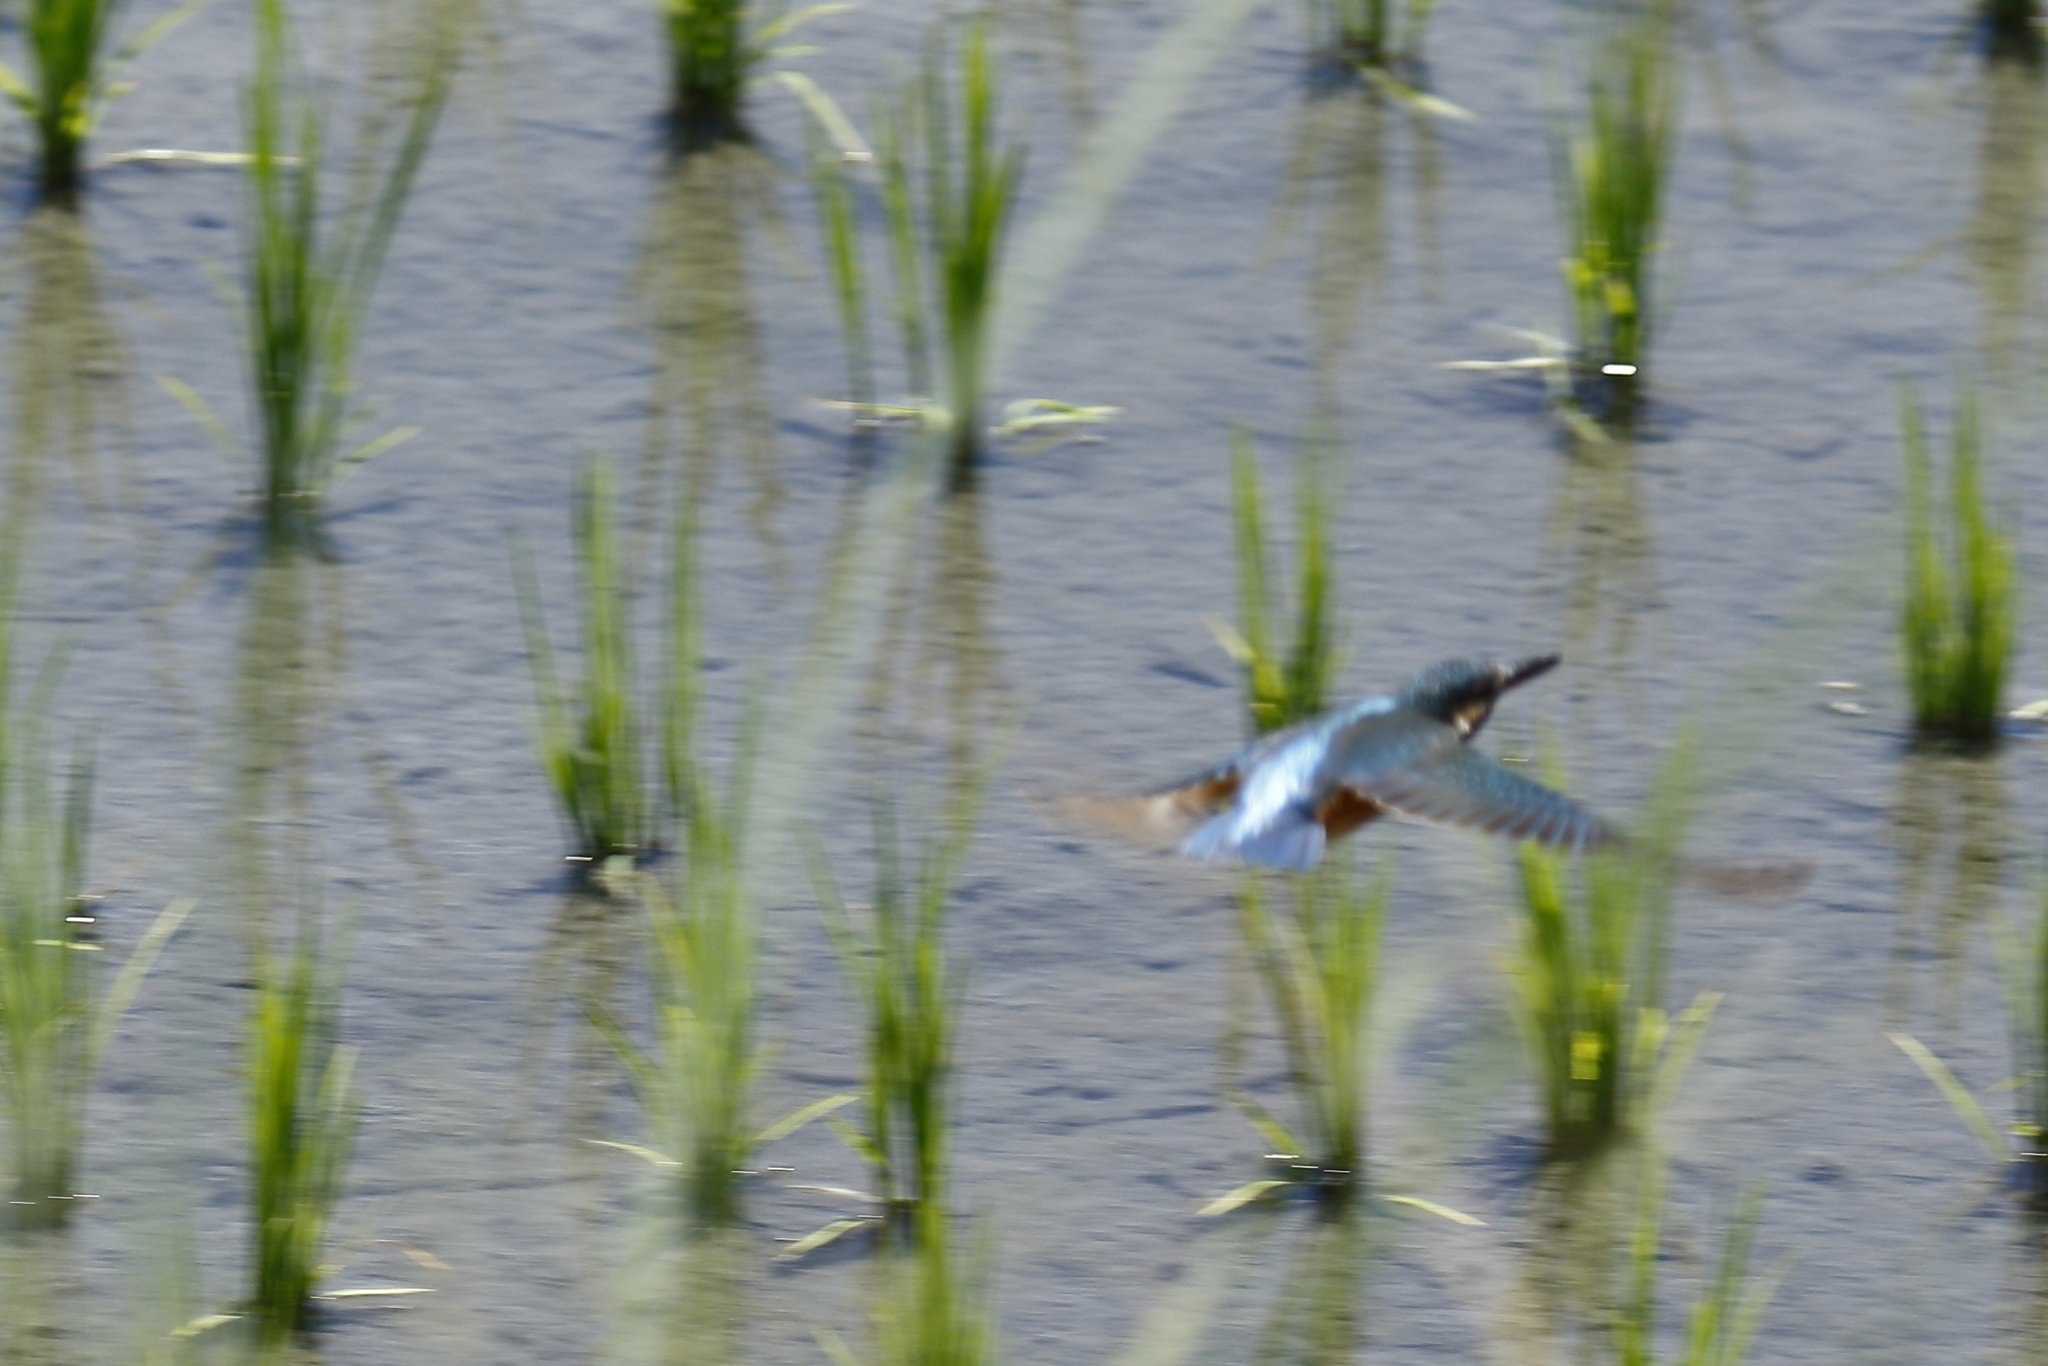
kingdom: Animalia
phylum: Chordata
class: Aves
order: Coraciiformes
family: Alcedinidae
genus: Alcedo
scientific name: Alcedo atthis
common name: Common kingfisher
